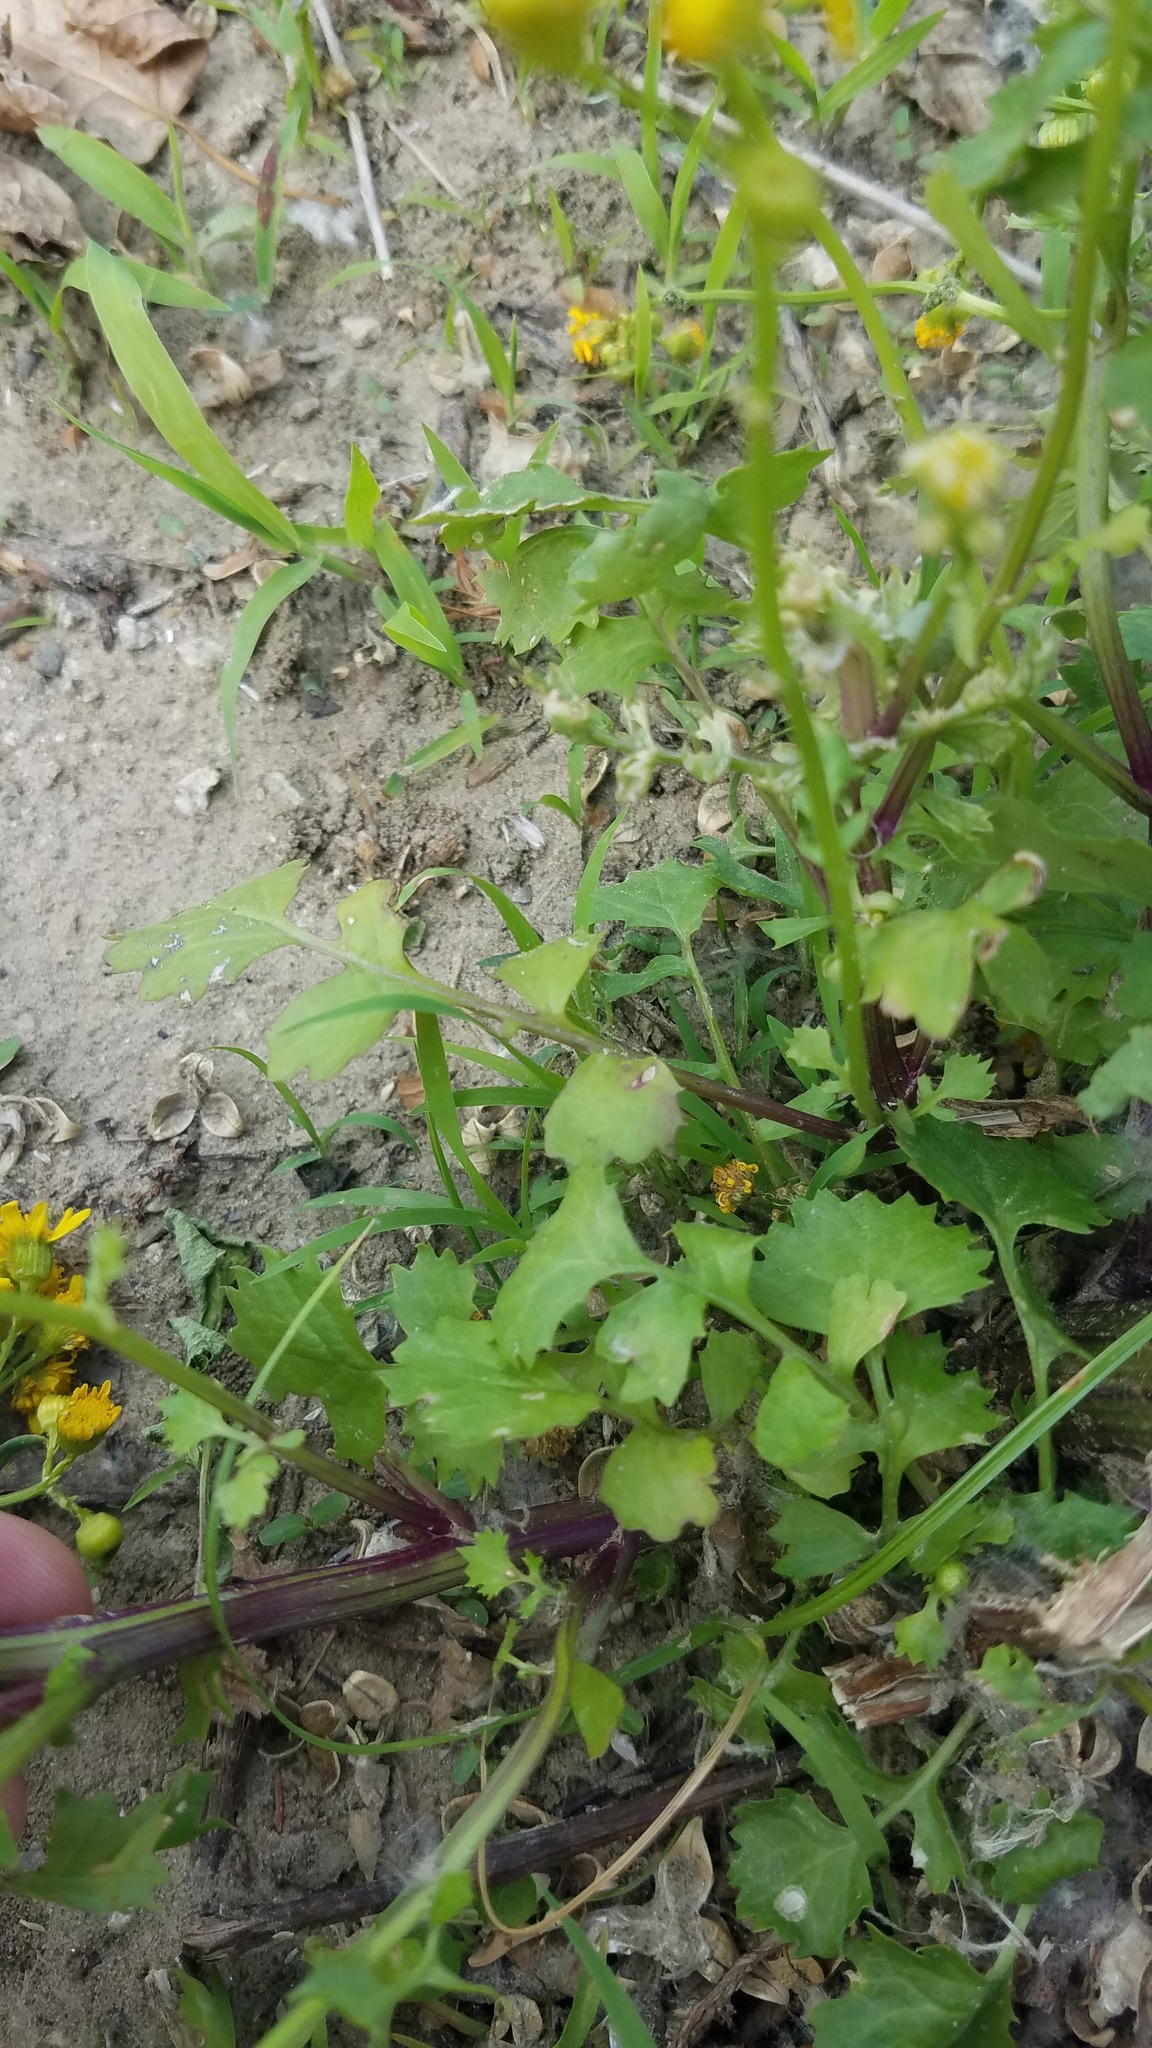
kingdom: Plantae
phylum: Tracheophyta
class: Magnoliopsida
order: Asterales
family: Asteraceae
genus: Packera
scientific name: Packera glabella
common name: Butterweed
